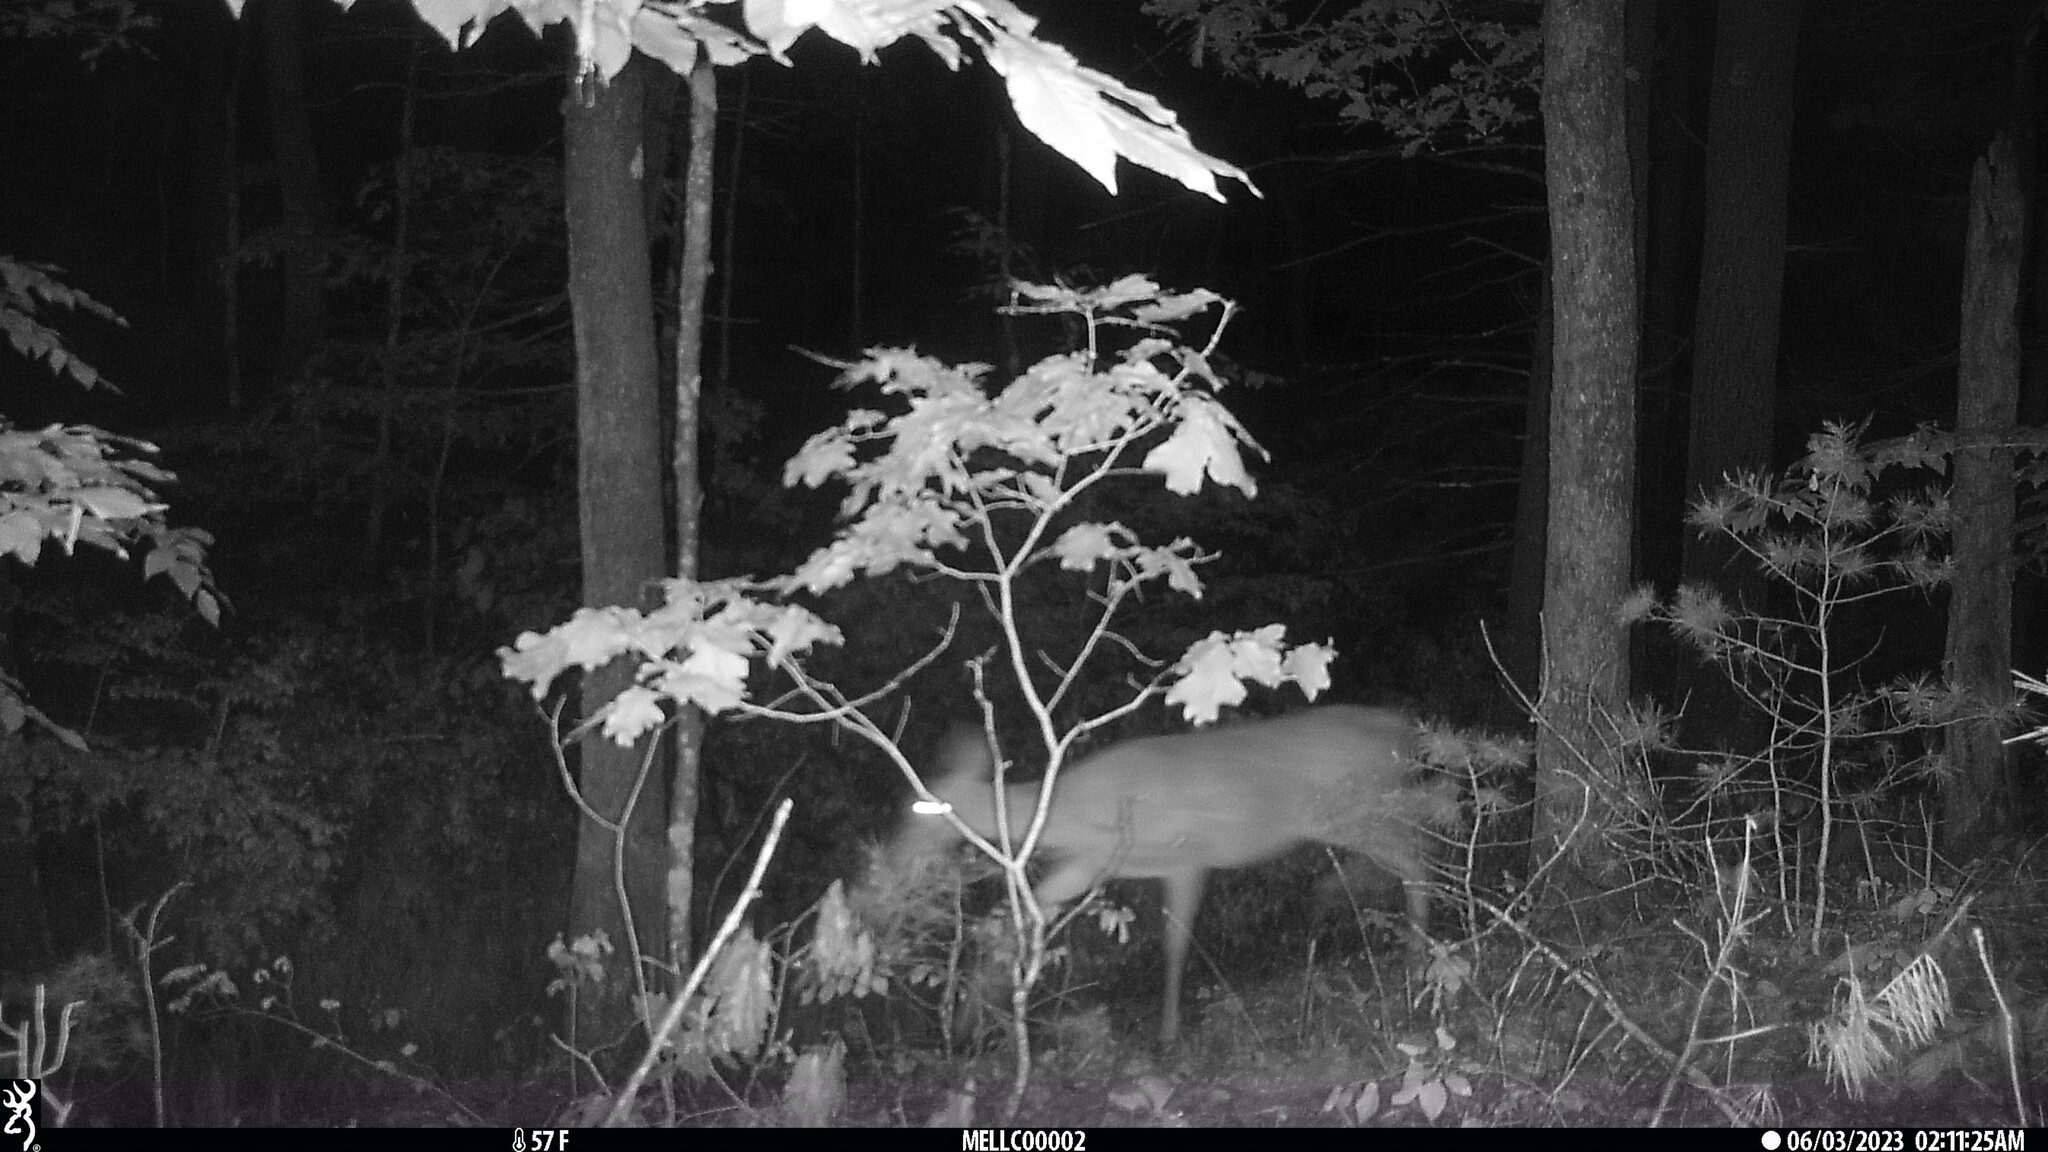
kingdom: Animalia
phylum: Chordata
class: Mammalia
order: Artiodactyla
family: Cervidae
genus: Odocoileus
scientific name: Odocoileus virginianus
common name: White-tailed deer
